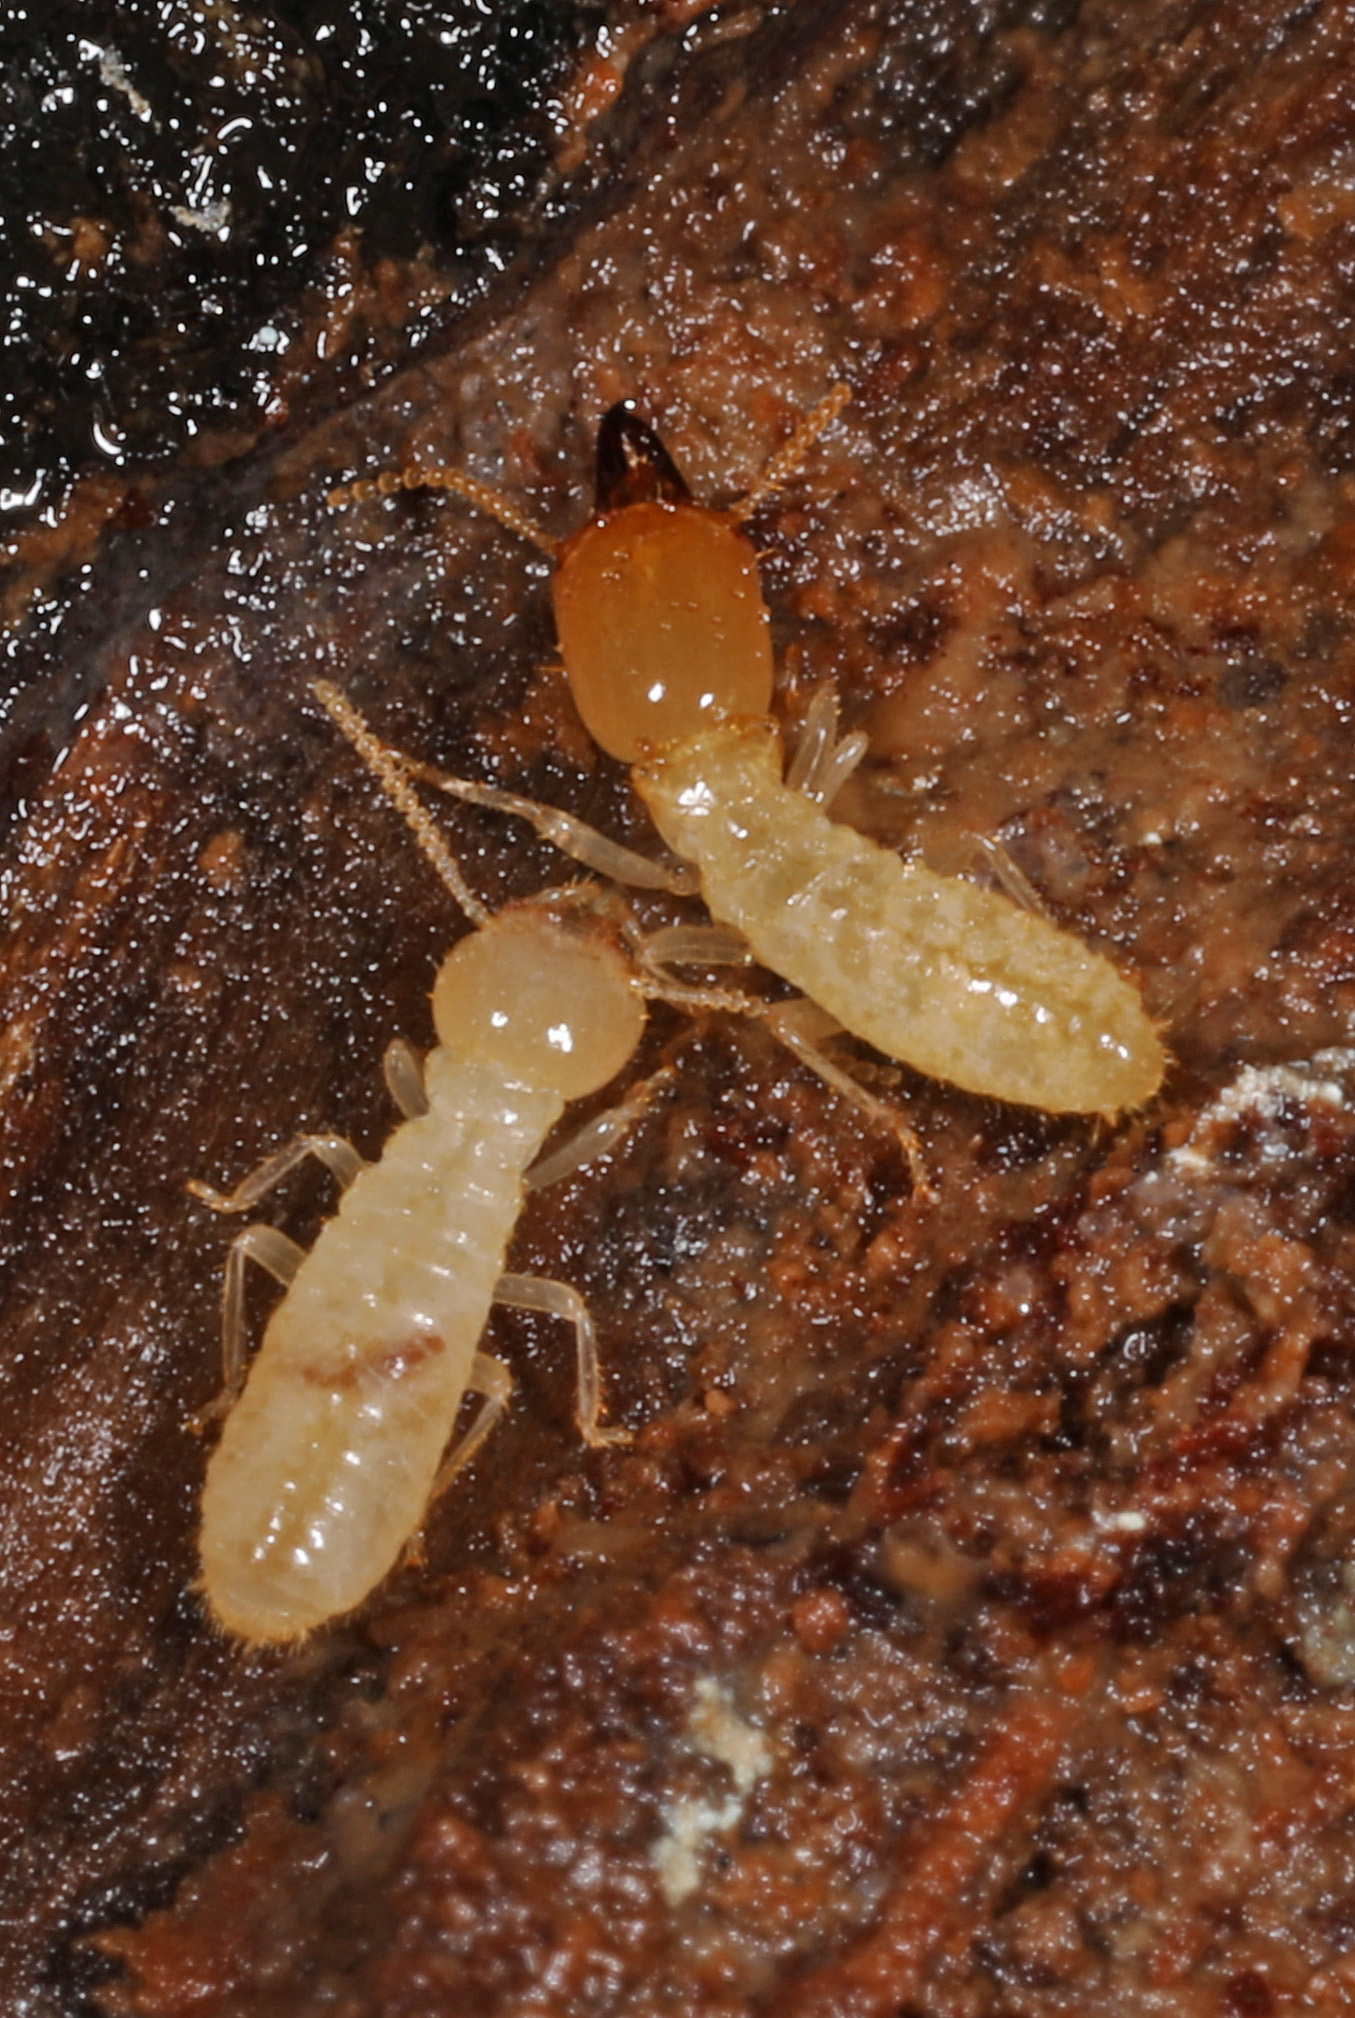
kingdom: Animalia
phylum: Arthropoda
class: Insecta
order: Blattodea
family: Rhinotermitidae
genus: Reticulitermes
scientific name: Reticulitermes flavipes
